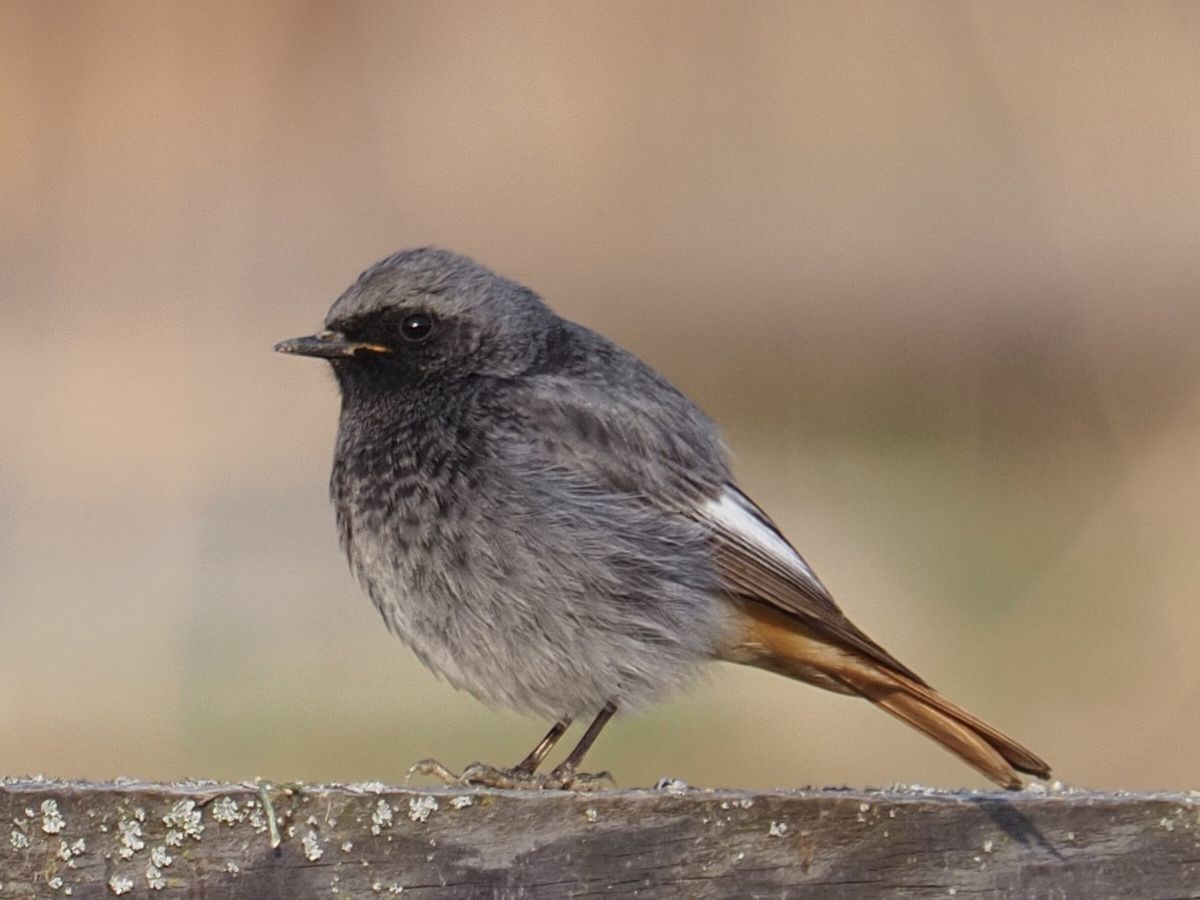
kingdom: Animalia
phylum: Chordata
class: Aves
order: Passeriformes
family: Muscicapidae
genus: Phoenicurus
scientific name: Phoenicurus ochruros
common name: Black redstart
